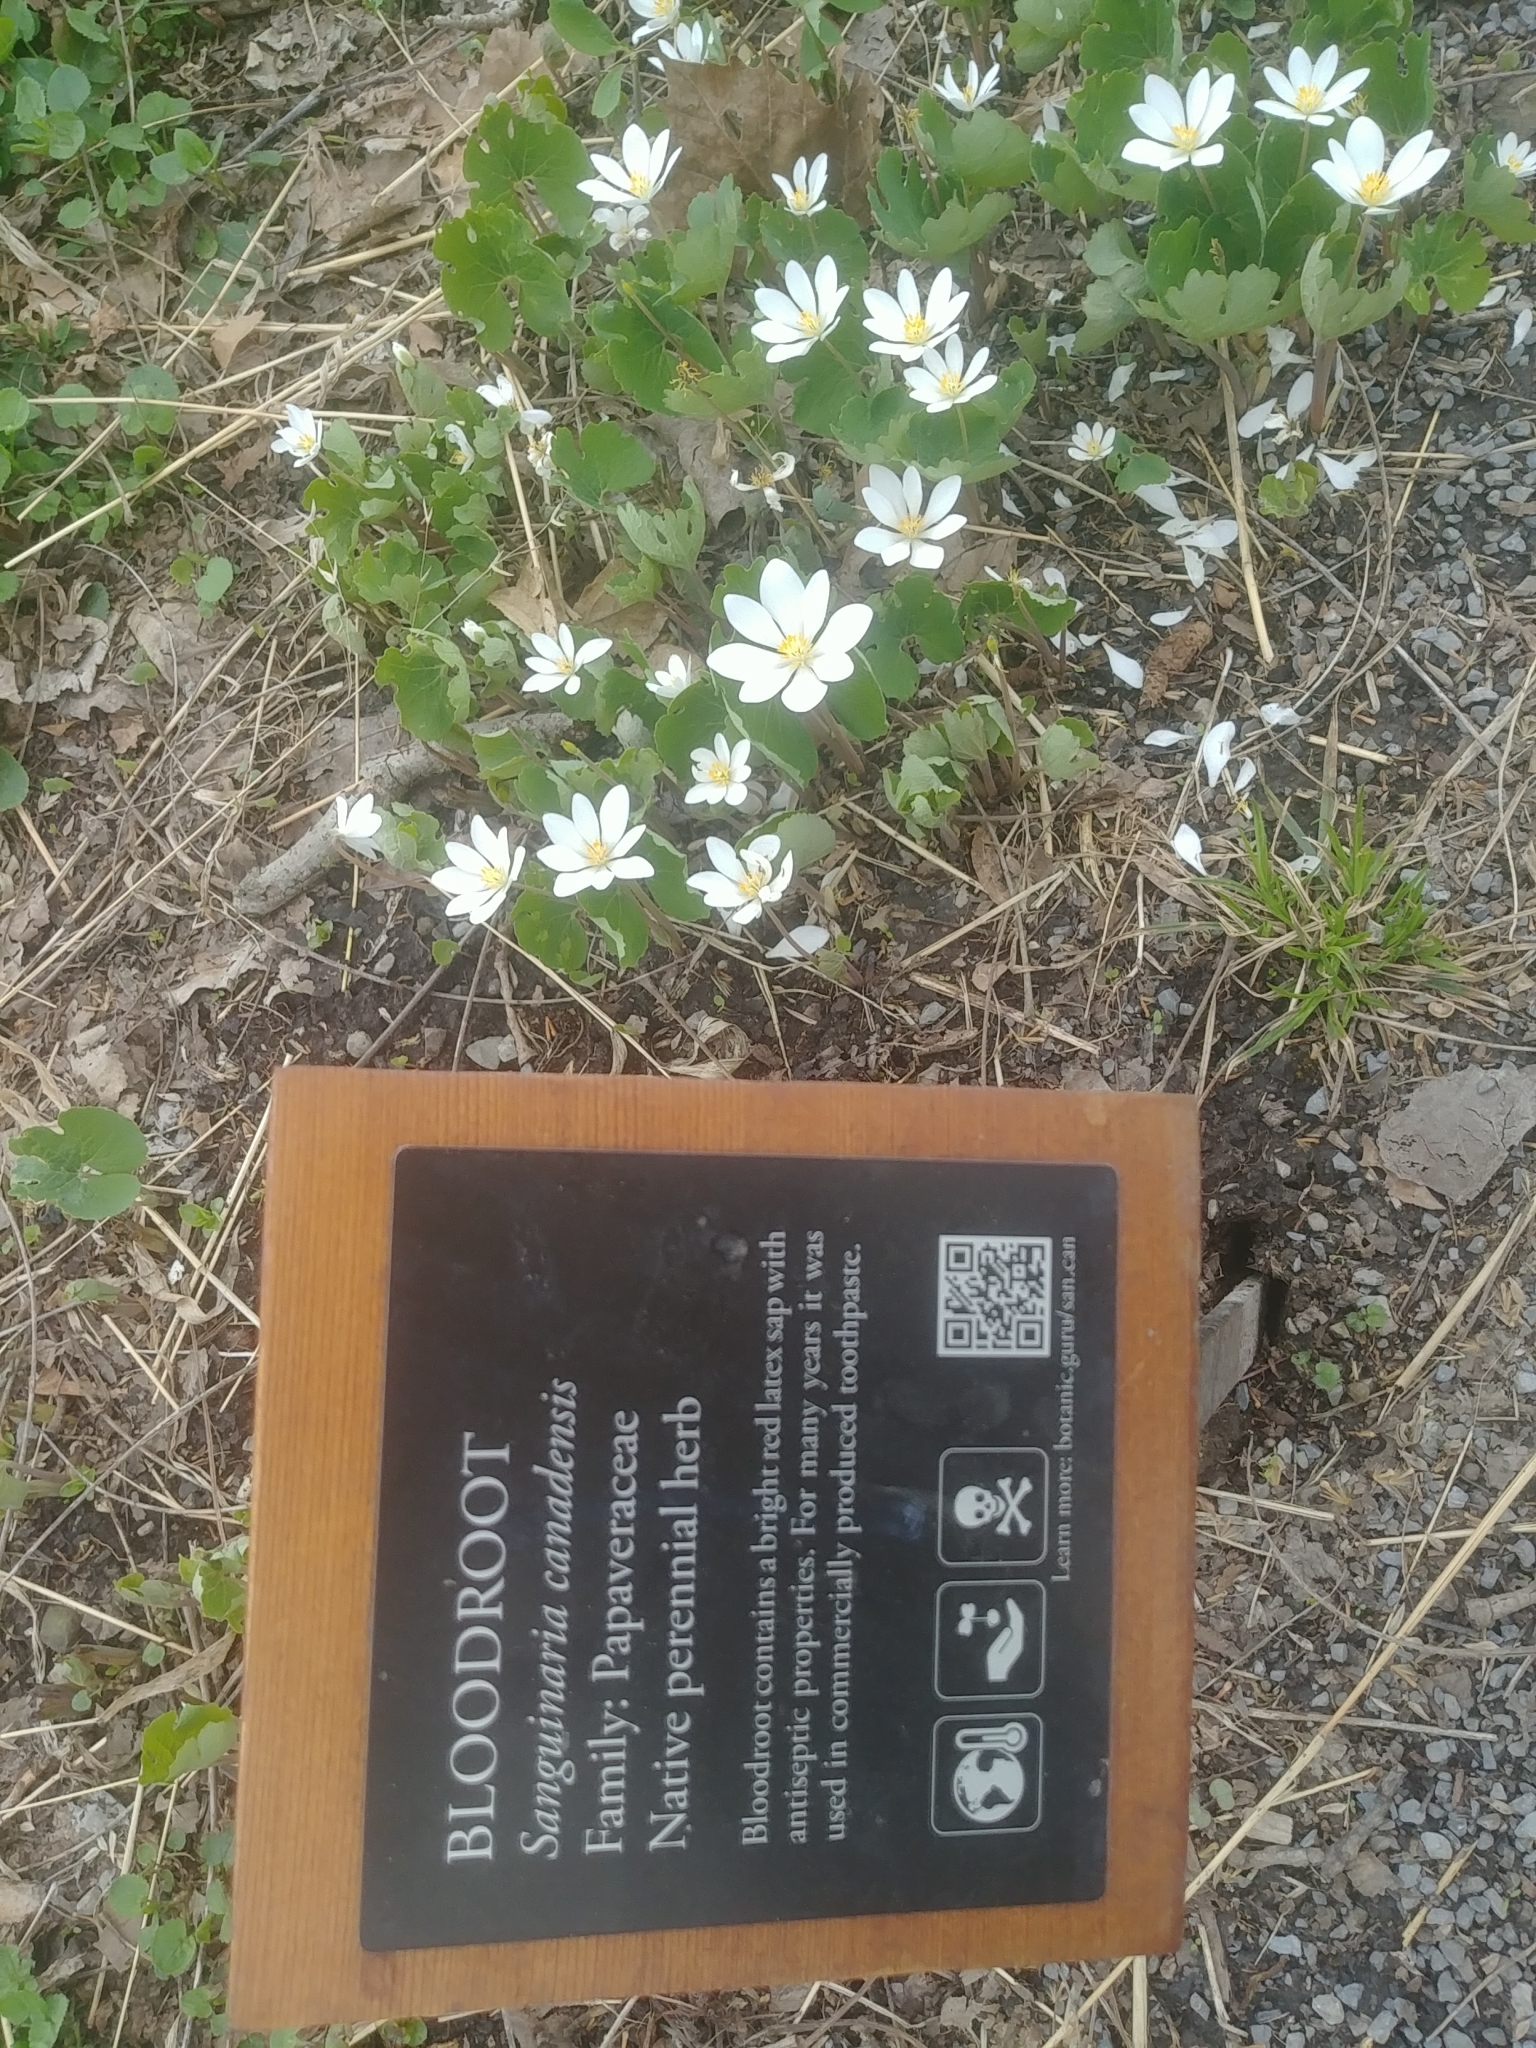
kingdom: Plantae
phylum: Tracheophyta
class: Magnoliopsida
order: Ranunculales
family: Papaveraceae
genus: Sanguinaria
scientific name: Sanguinaria canadensis
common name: Bloodroot
